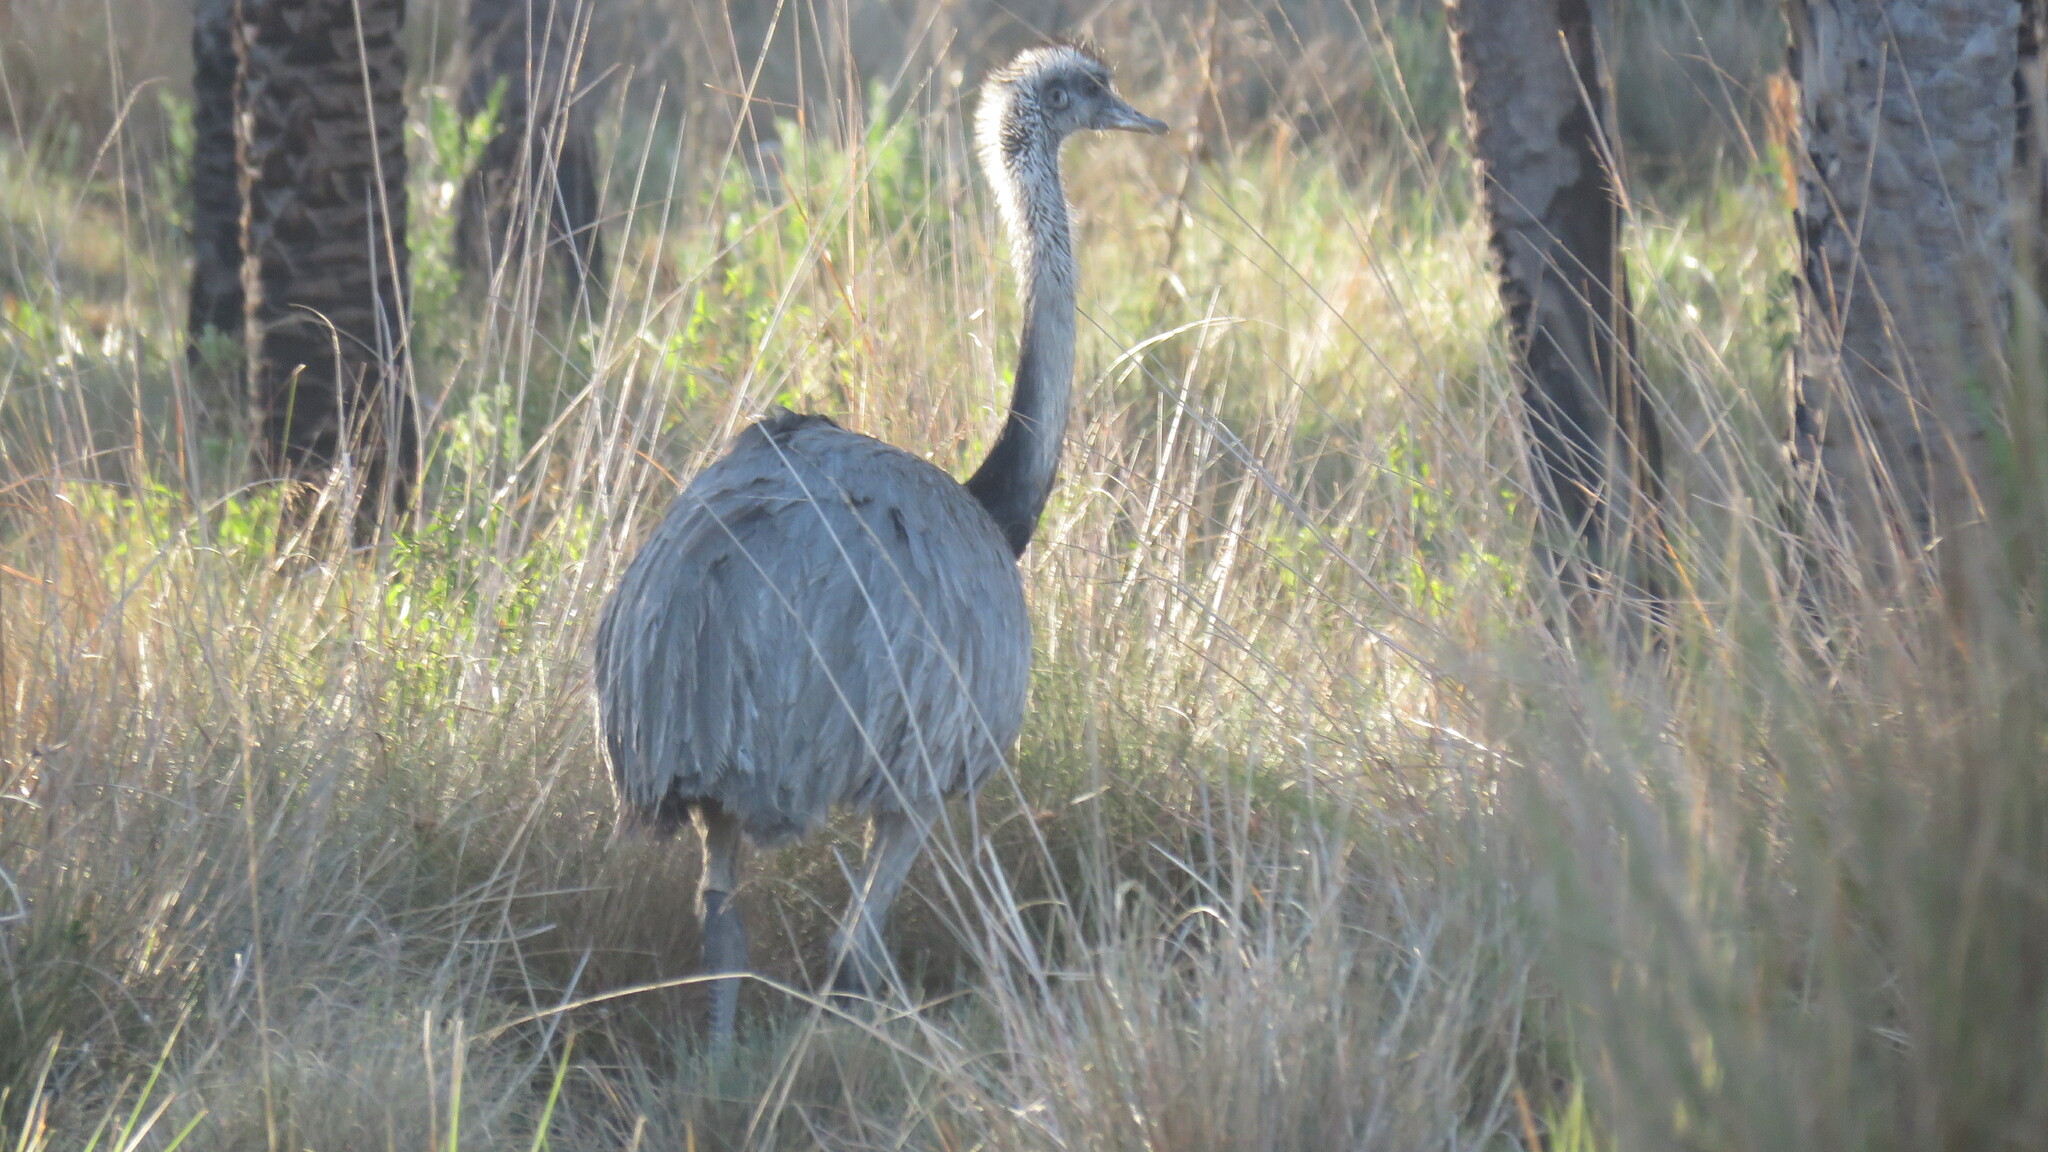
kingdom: Animalia
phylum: Chordata
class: Aves
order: Rheiformes
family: Rheidae
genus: Rhea
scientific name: Rhea americana
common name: Greater rhea
